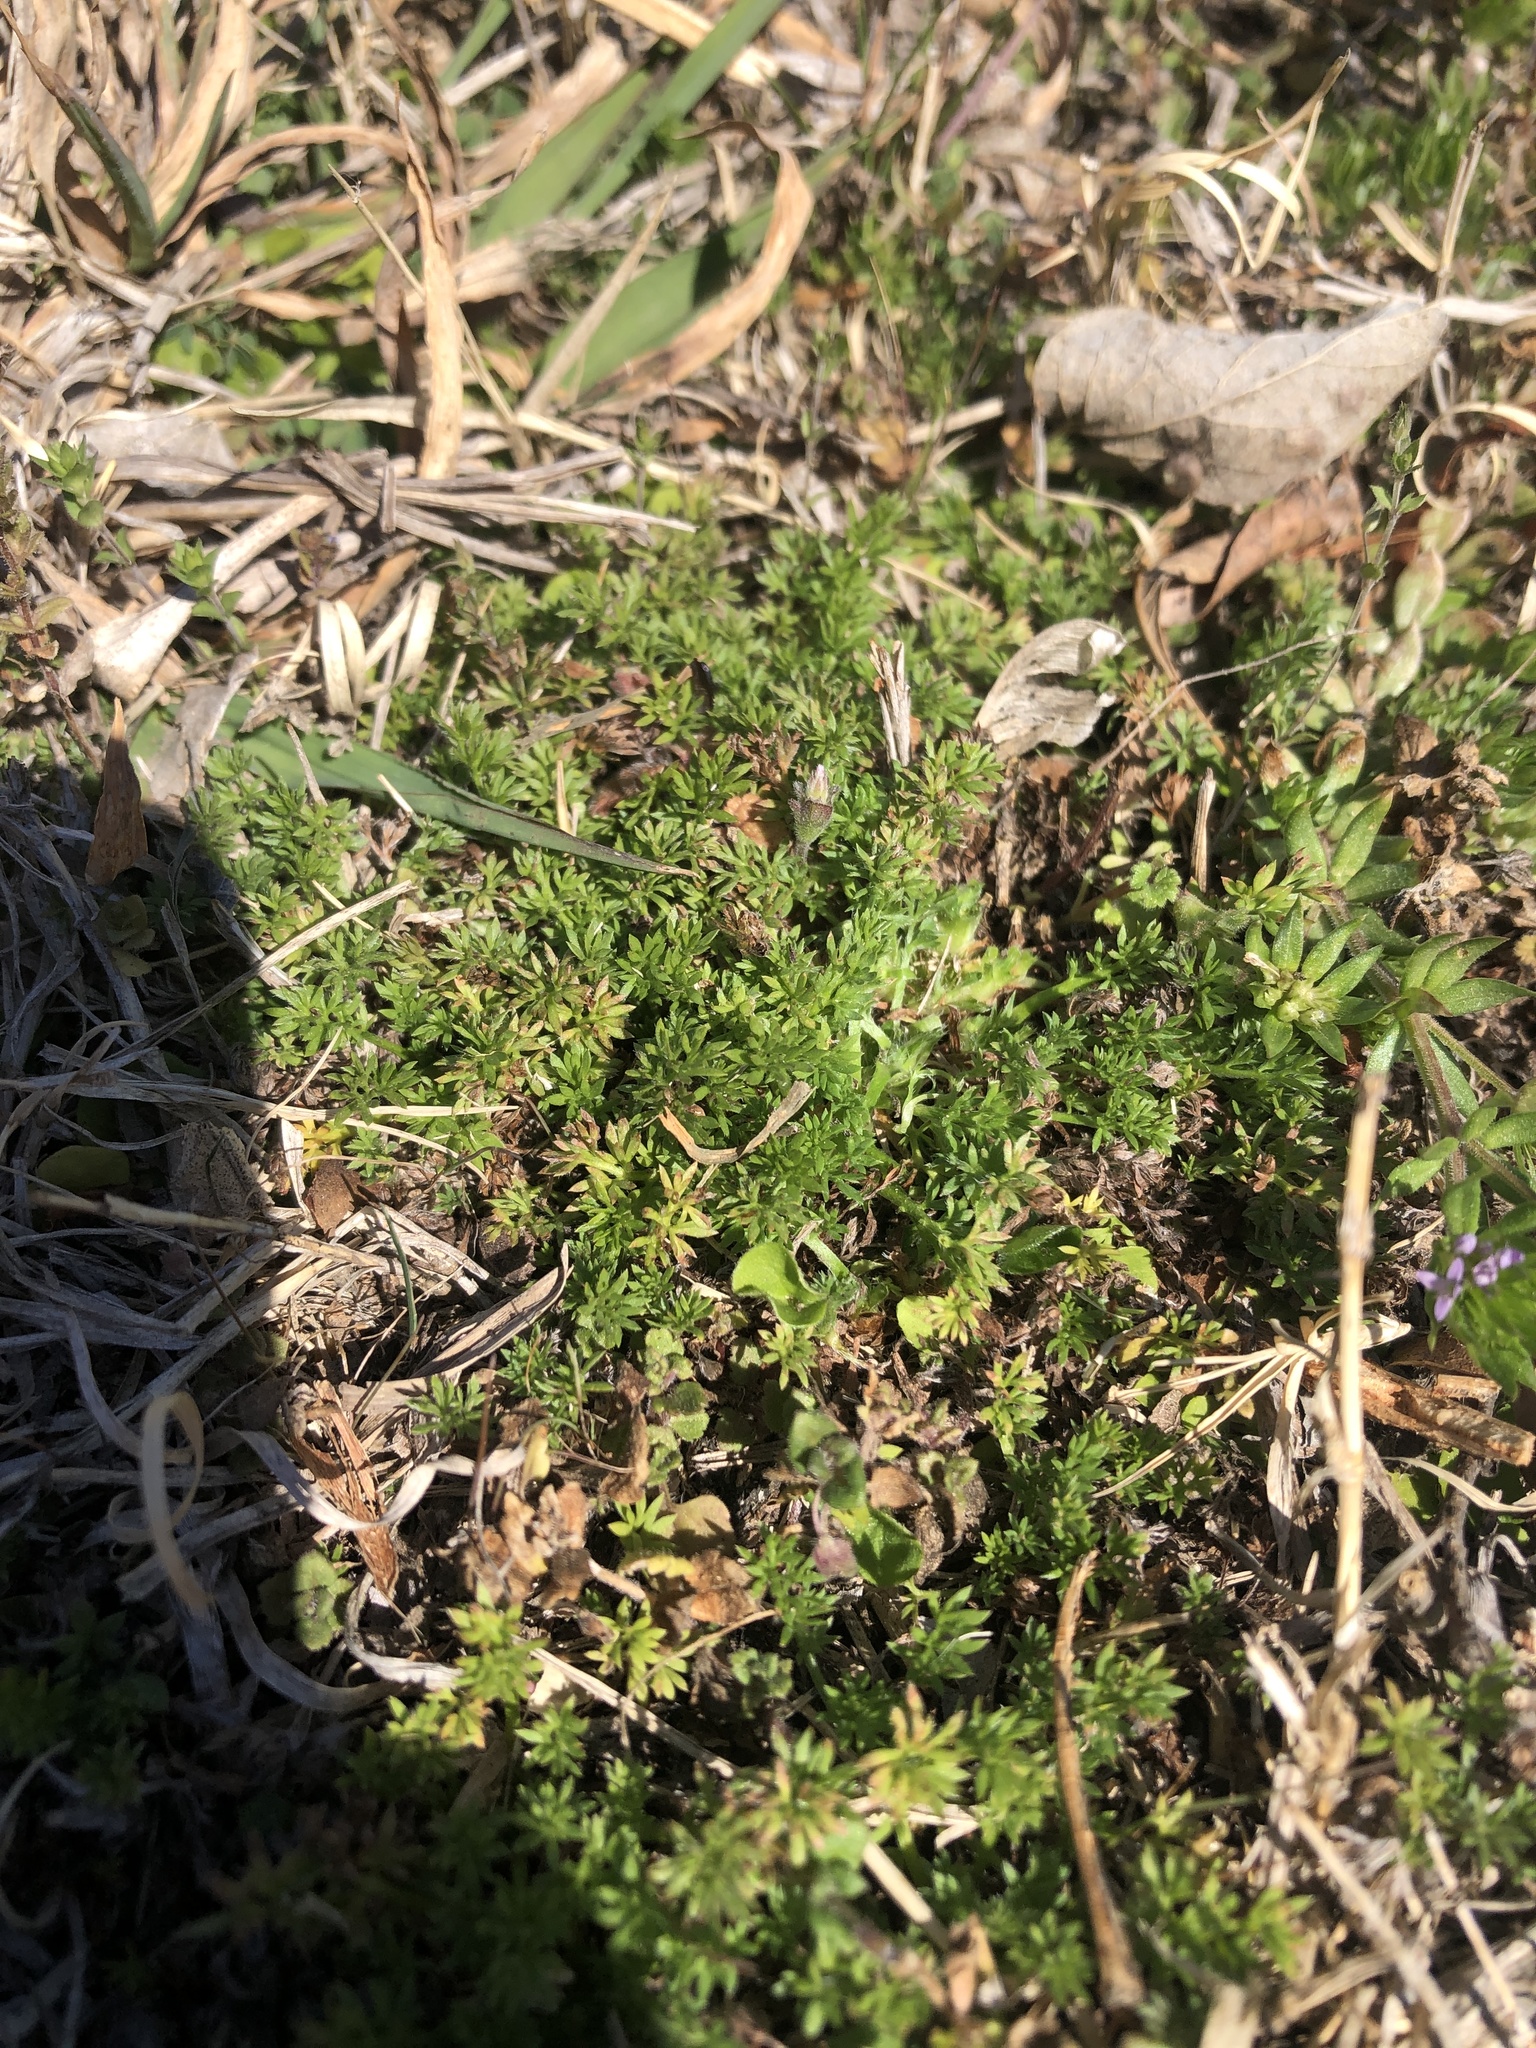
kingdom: Plantae
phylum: Tracheophyta
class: Magnoliopsida
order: Asterales
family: Asteraceae
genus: Soliva
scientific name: Soliva sessilis
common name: Field burrweed
